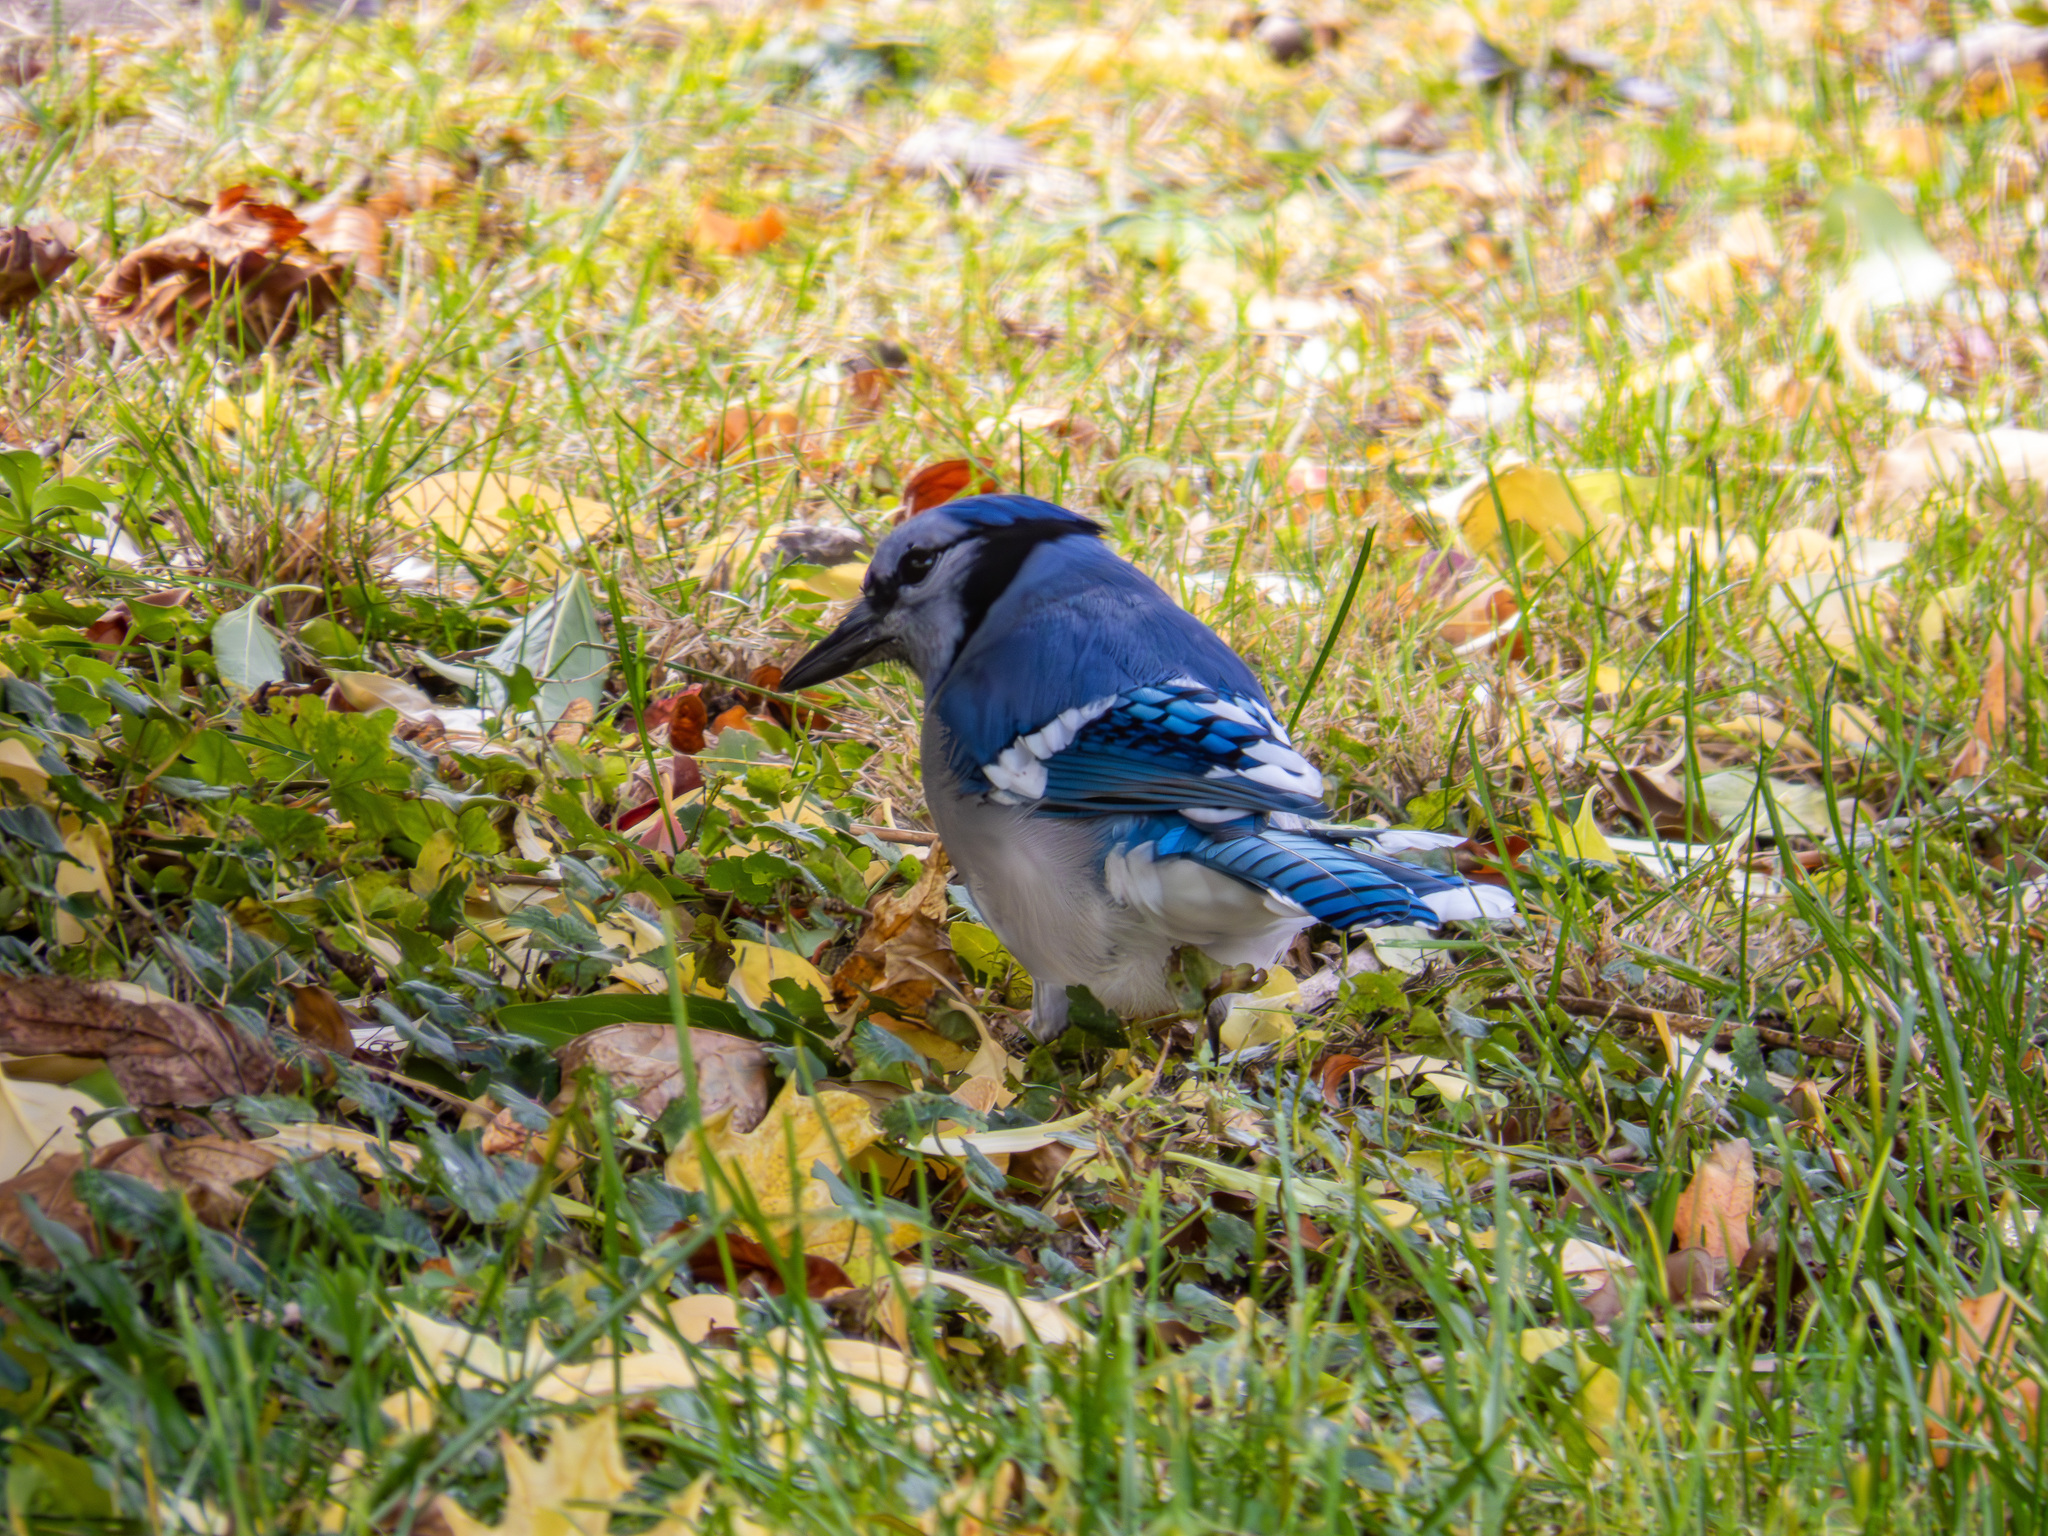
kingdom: Animalia
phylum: Chordata
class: Aves
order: Passeriformes
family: Corvidae
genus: Cyanocitta
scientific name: Cyanocitta cristata
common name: Blue jay
